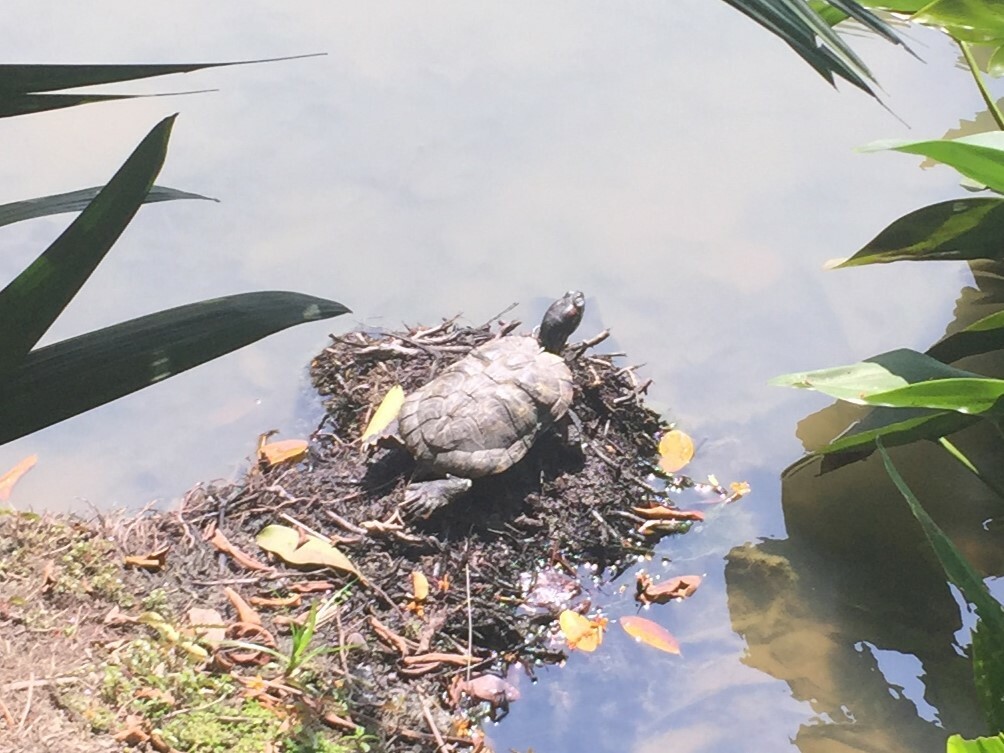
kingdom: Animalia
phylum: Chordata
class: Testudines
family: Emydidae
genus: Trachemys
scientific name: Trachemys scripta
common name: Slider
